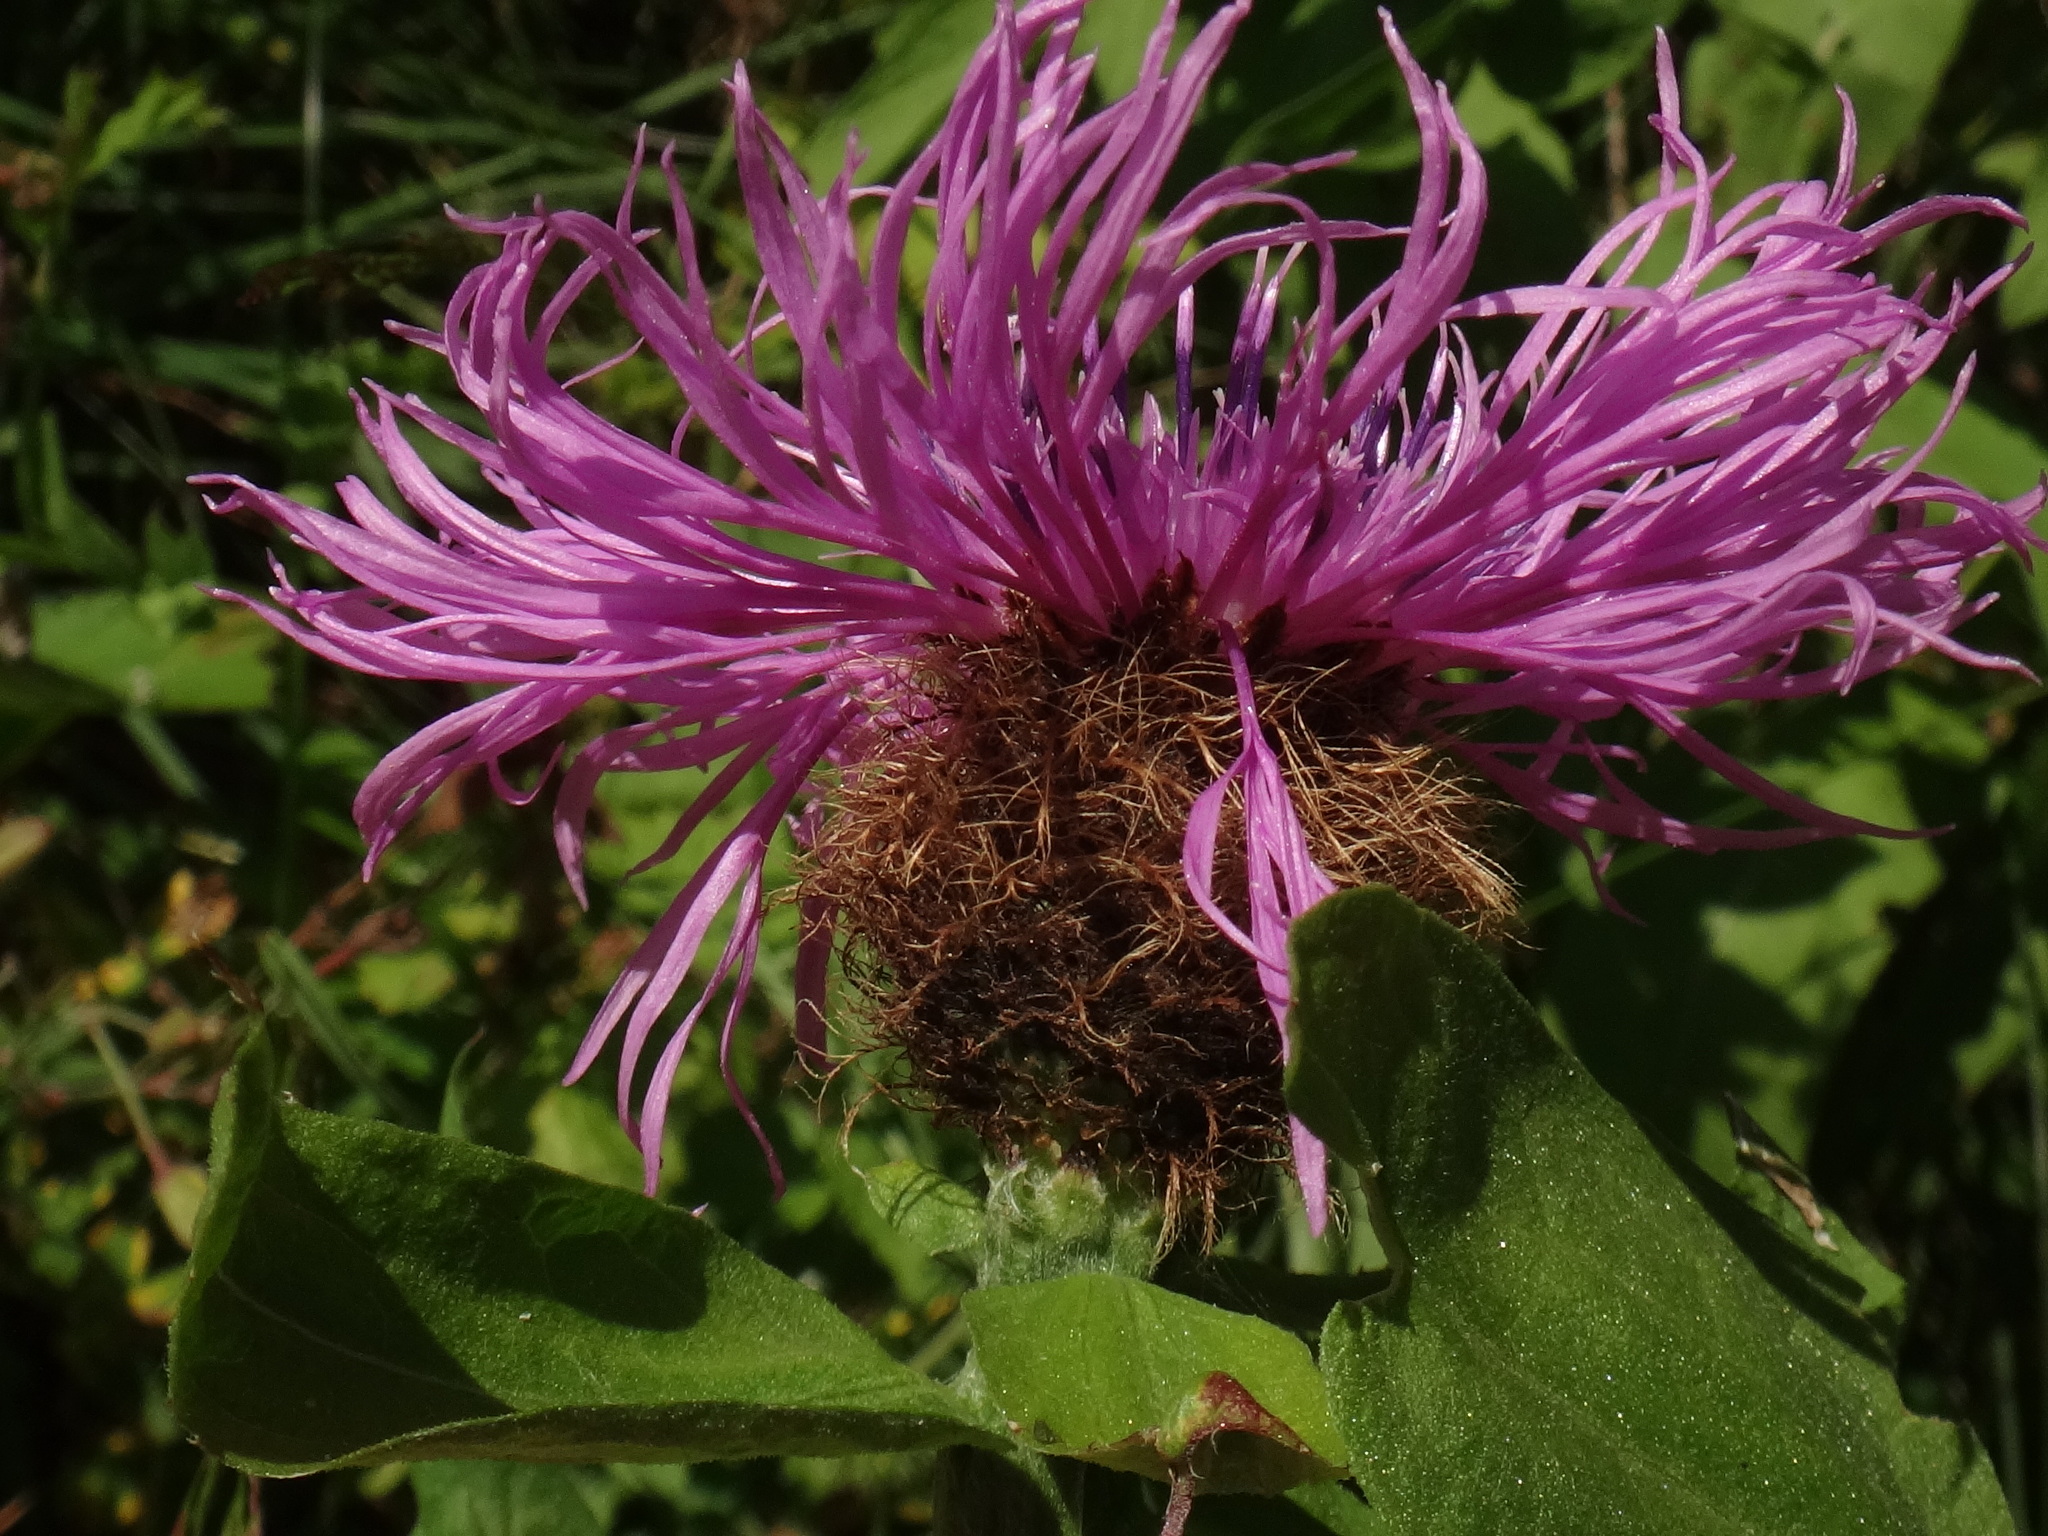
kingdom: Plantae
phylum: Tracheophyta
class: Magnoliopsida
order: Asterales
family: Asteraceae
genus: Centaurea
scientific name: Centaurea pseudophrygia
